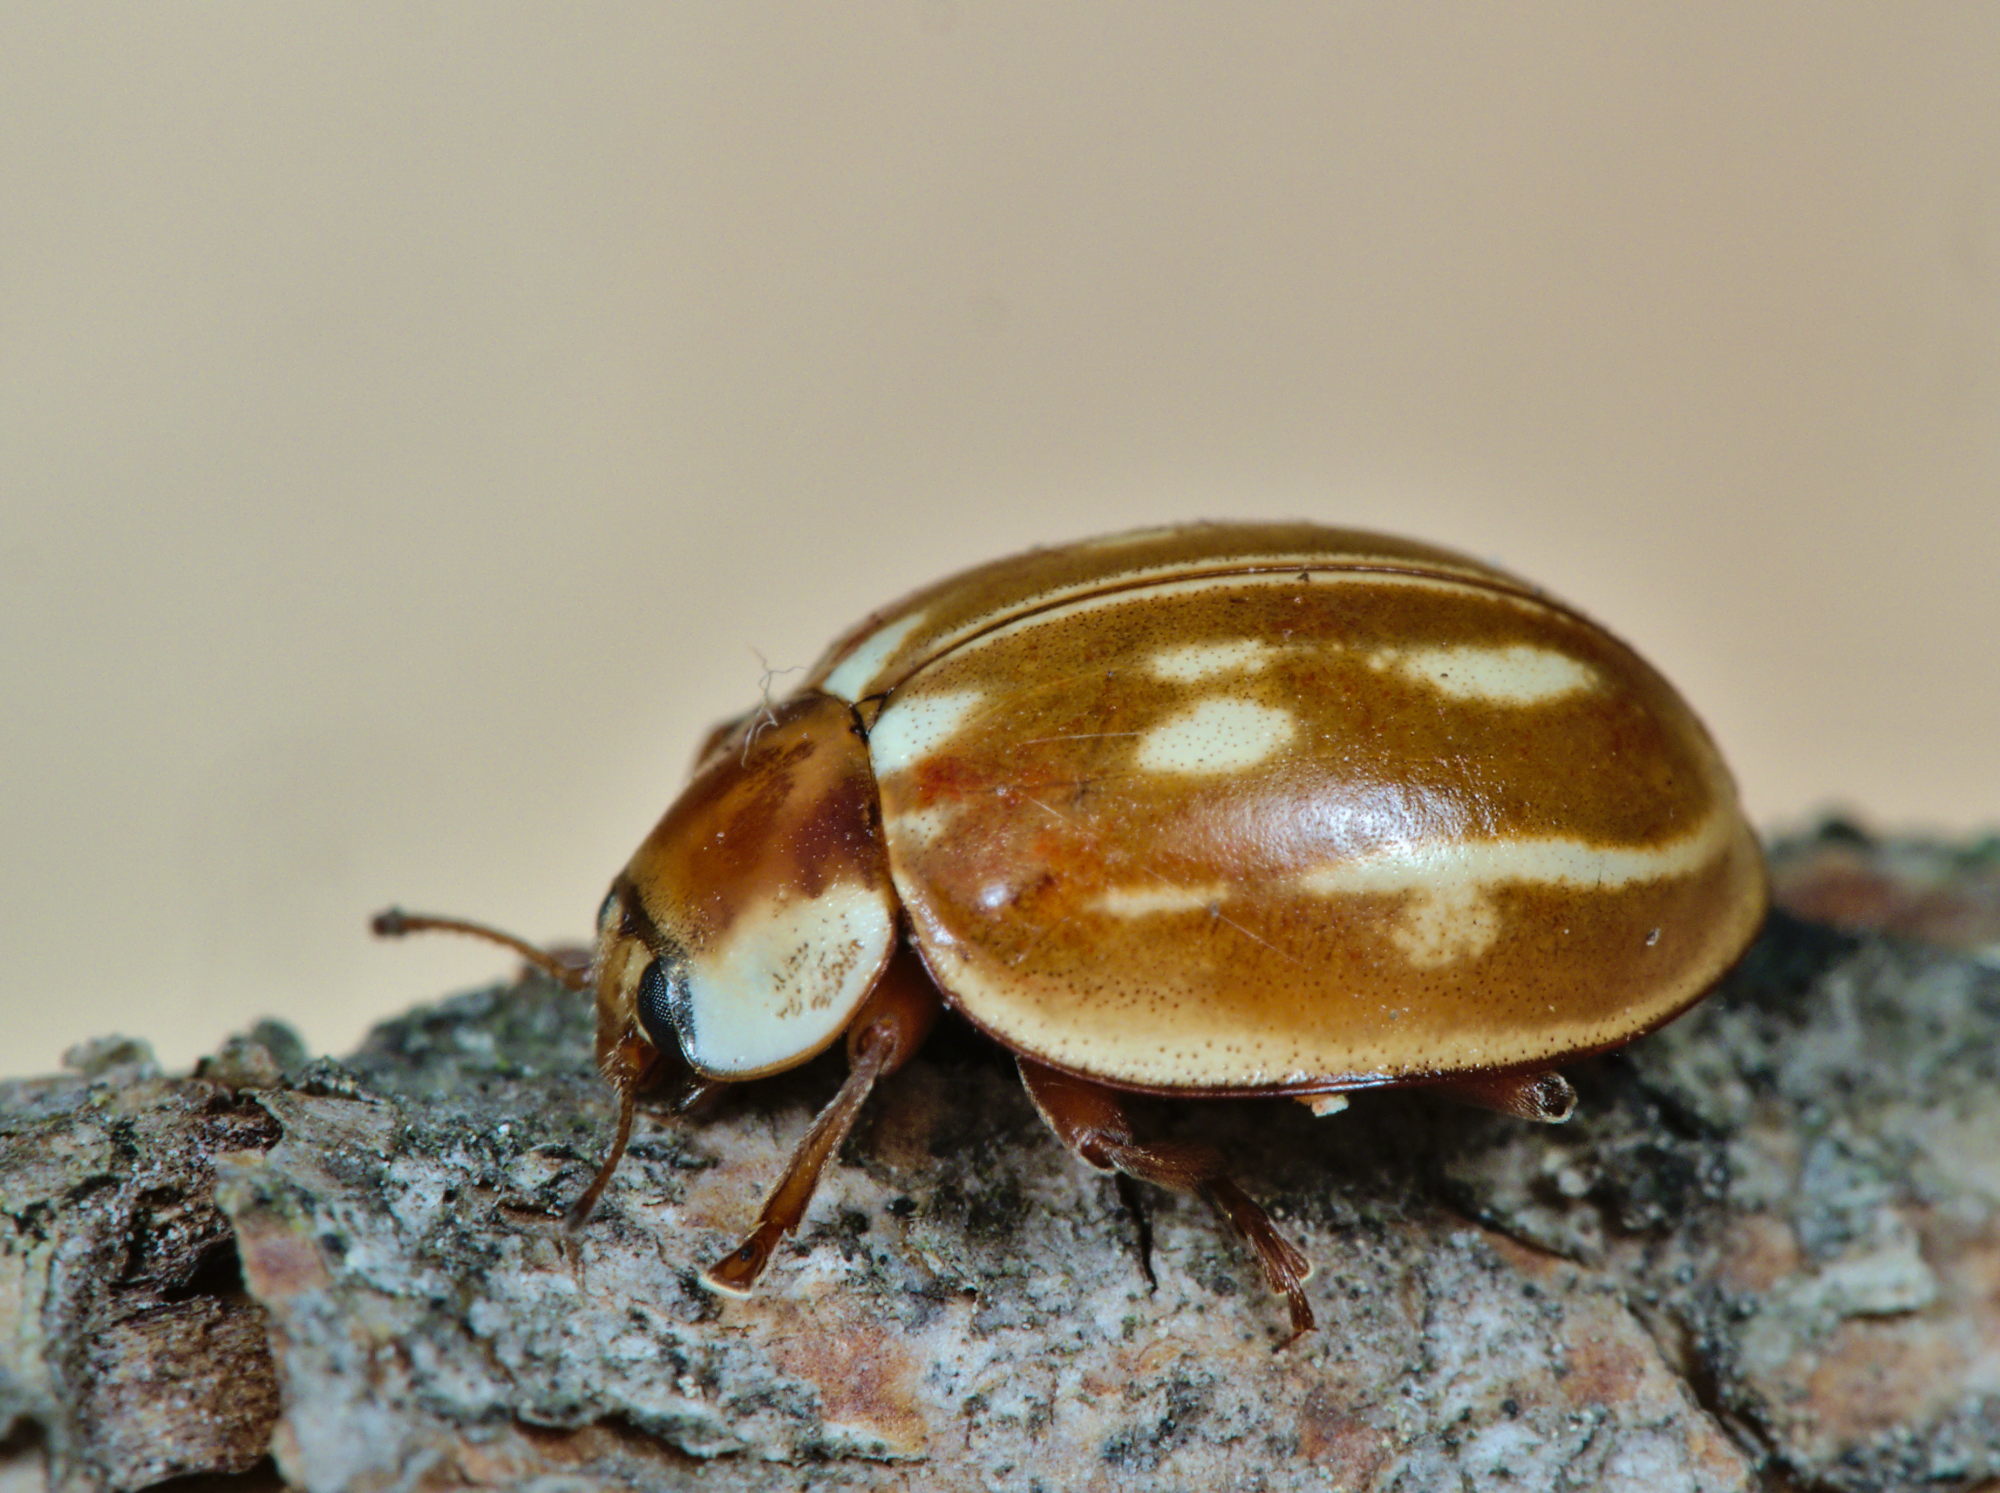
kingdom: Animalia
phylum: Arthropoda
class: Insecta
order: Coleoptera
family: Coccinellidae
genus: Myzia
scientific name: Myzia oblongoguttata
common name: Striped ladybird
